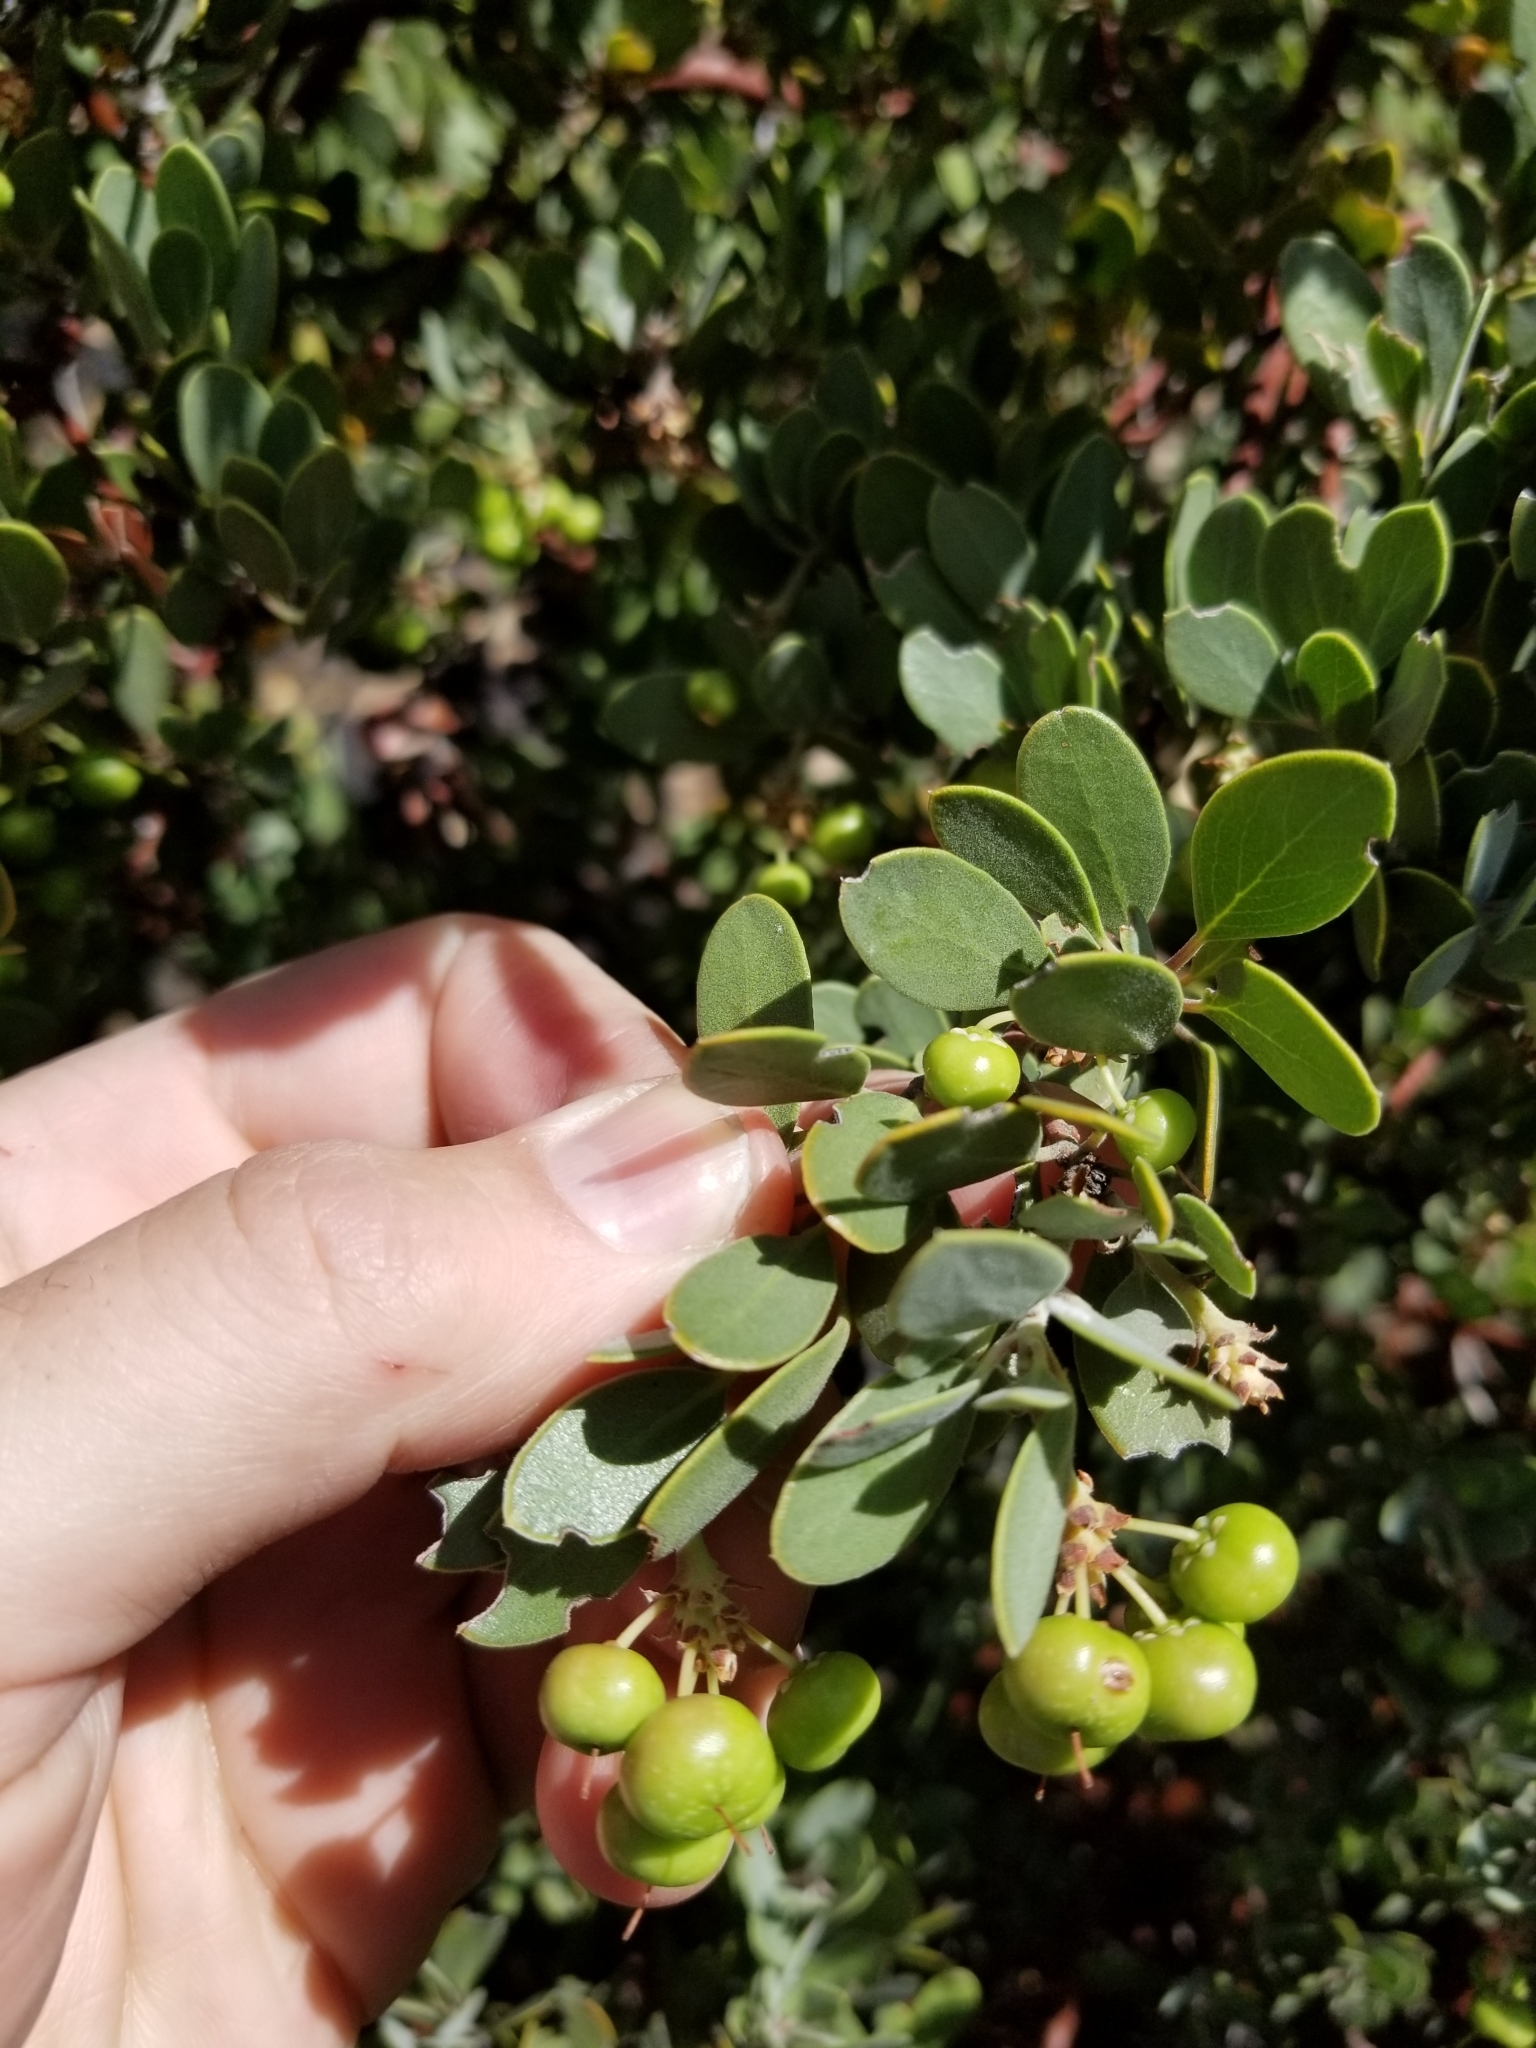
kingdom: Plantae
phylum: Tracheophyta
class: Magnoliopsida
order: Ericales
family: Ericaceae
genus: Arctostaphylos
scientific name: Arctostaphylos pungens
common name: Mexican manzanita
